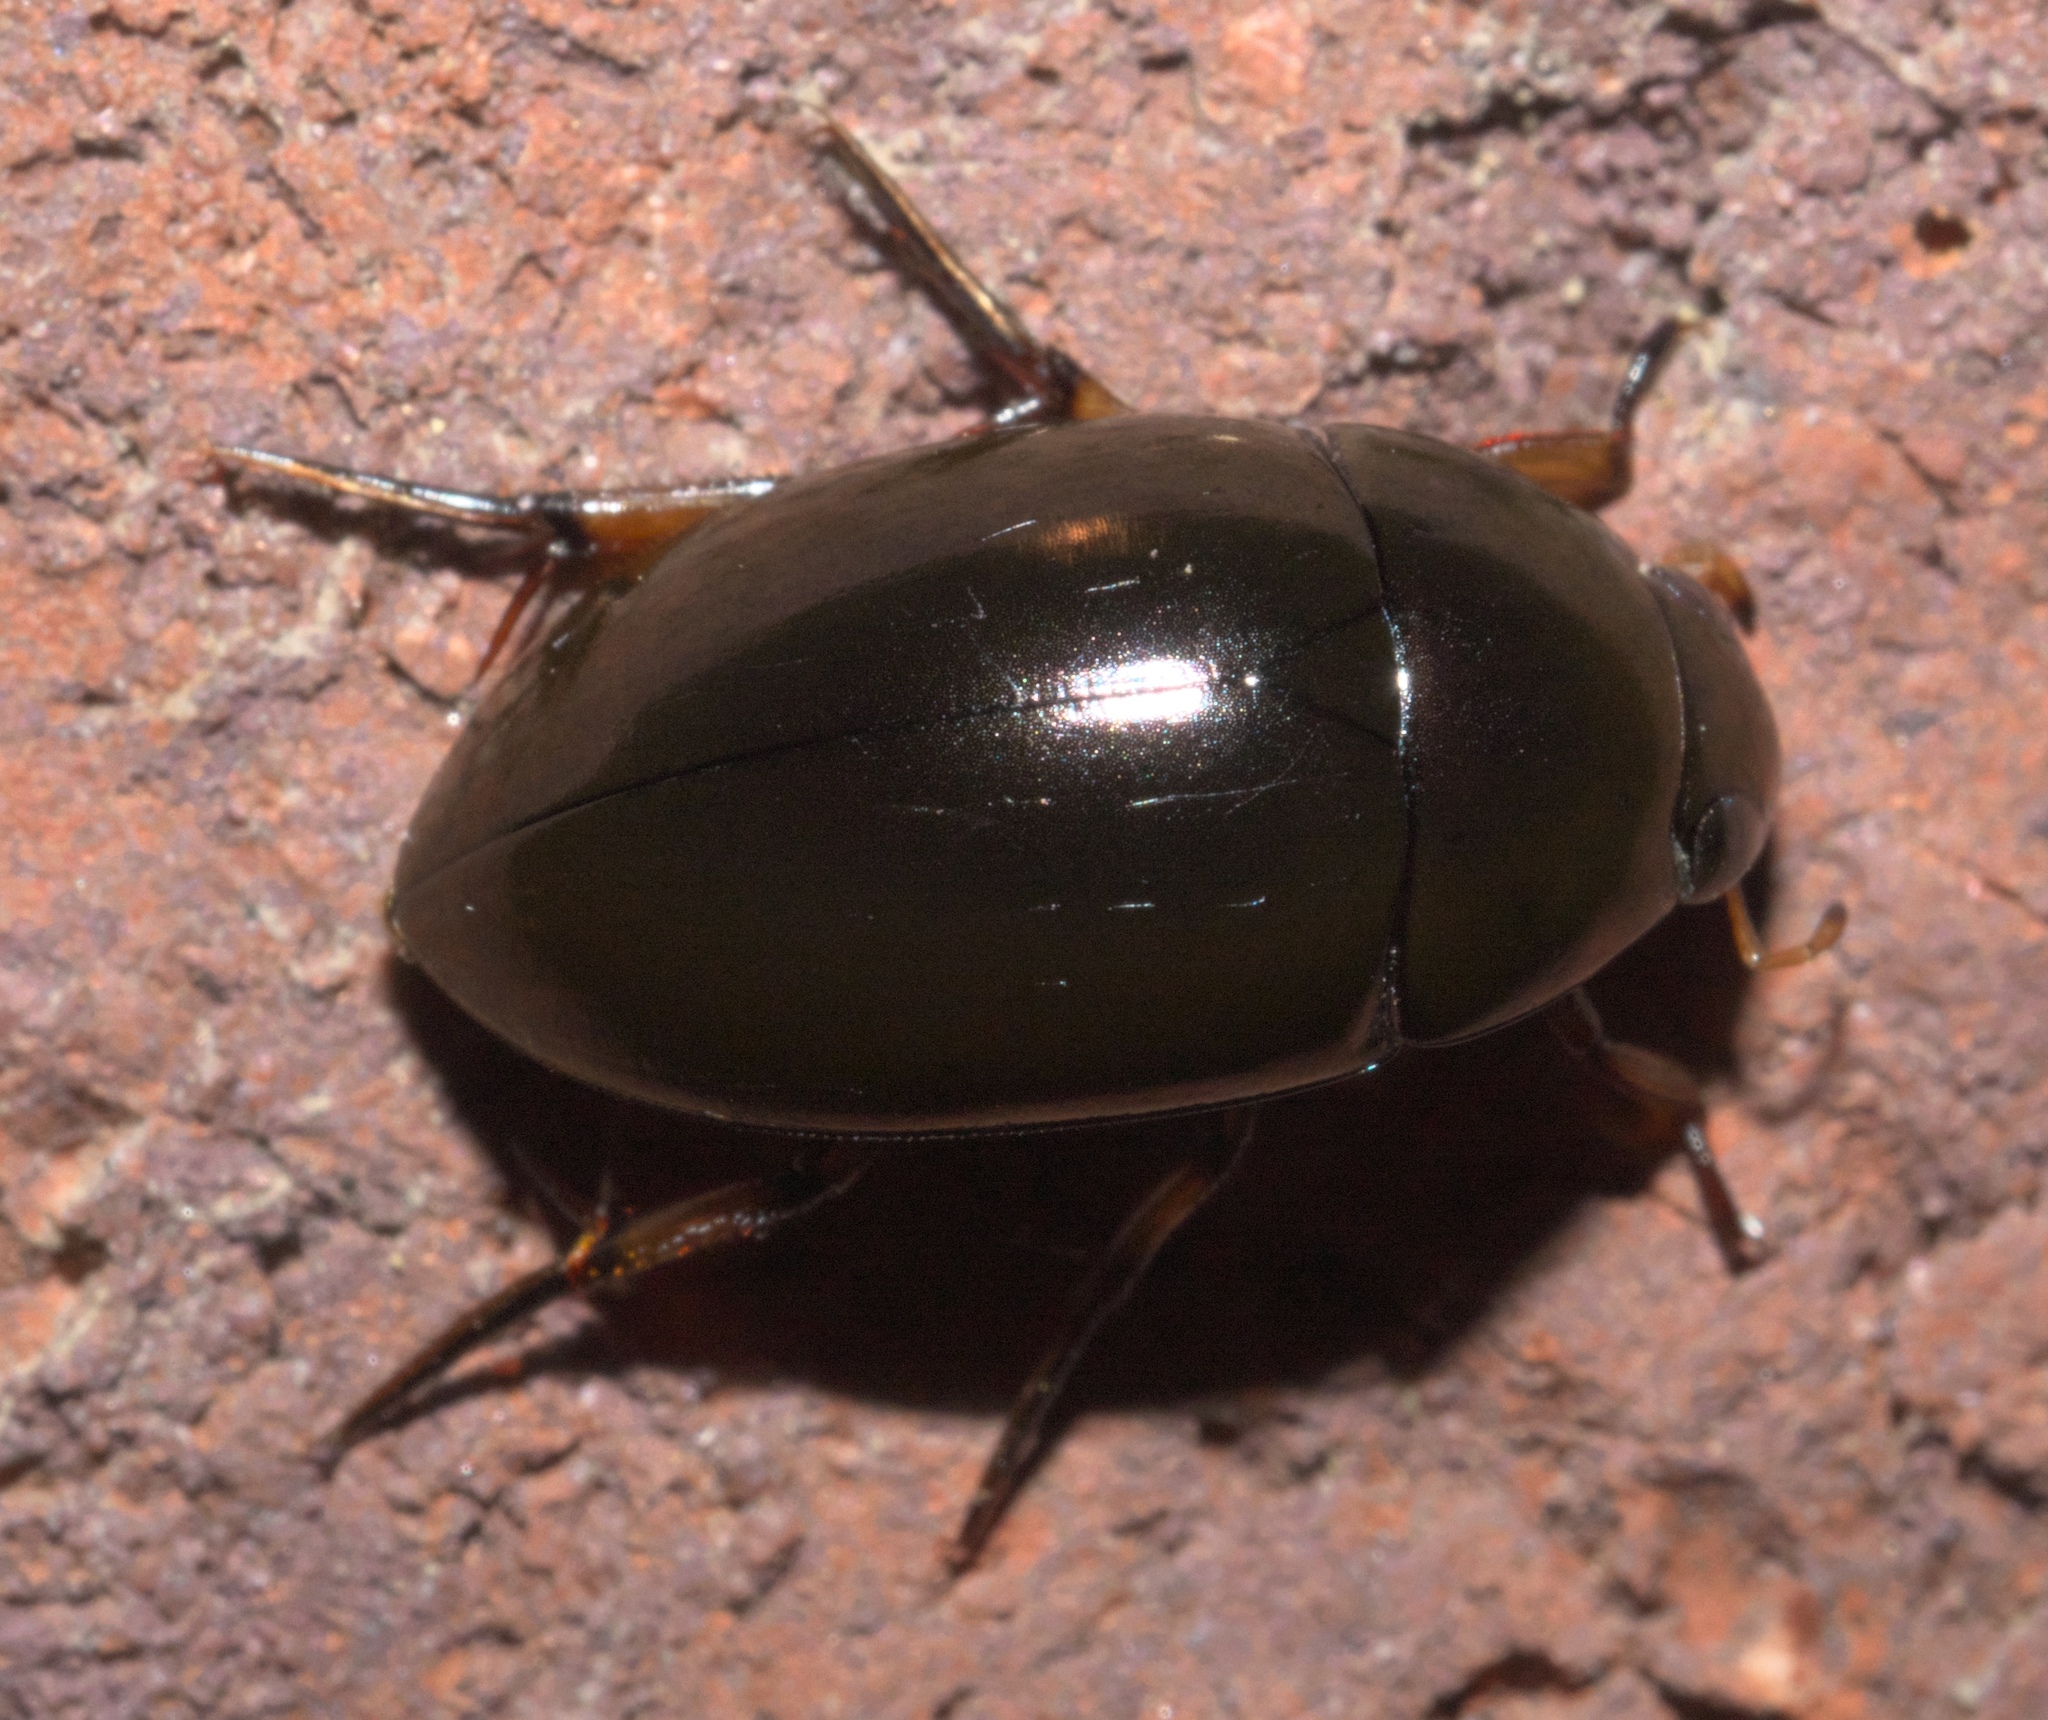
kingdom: Animalia
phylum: Arthropoda
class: Insecta
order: Coleoptera
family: Hydrophilidae
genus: Tropisternus
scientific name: Tropisternus blatchleyi
